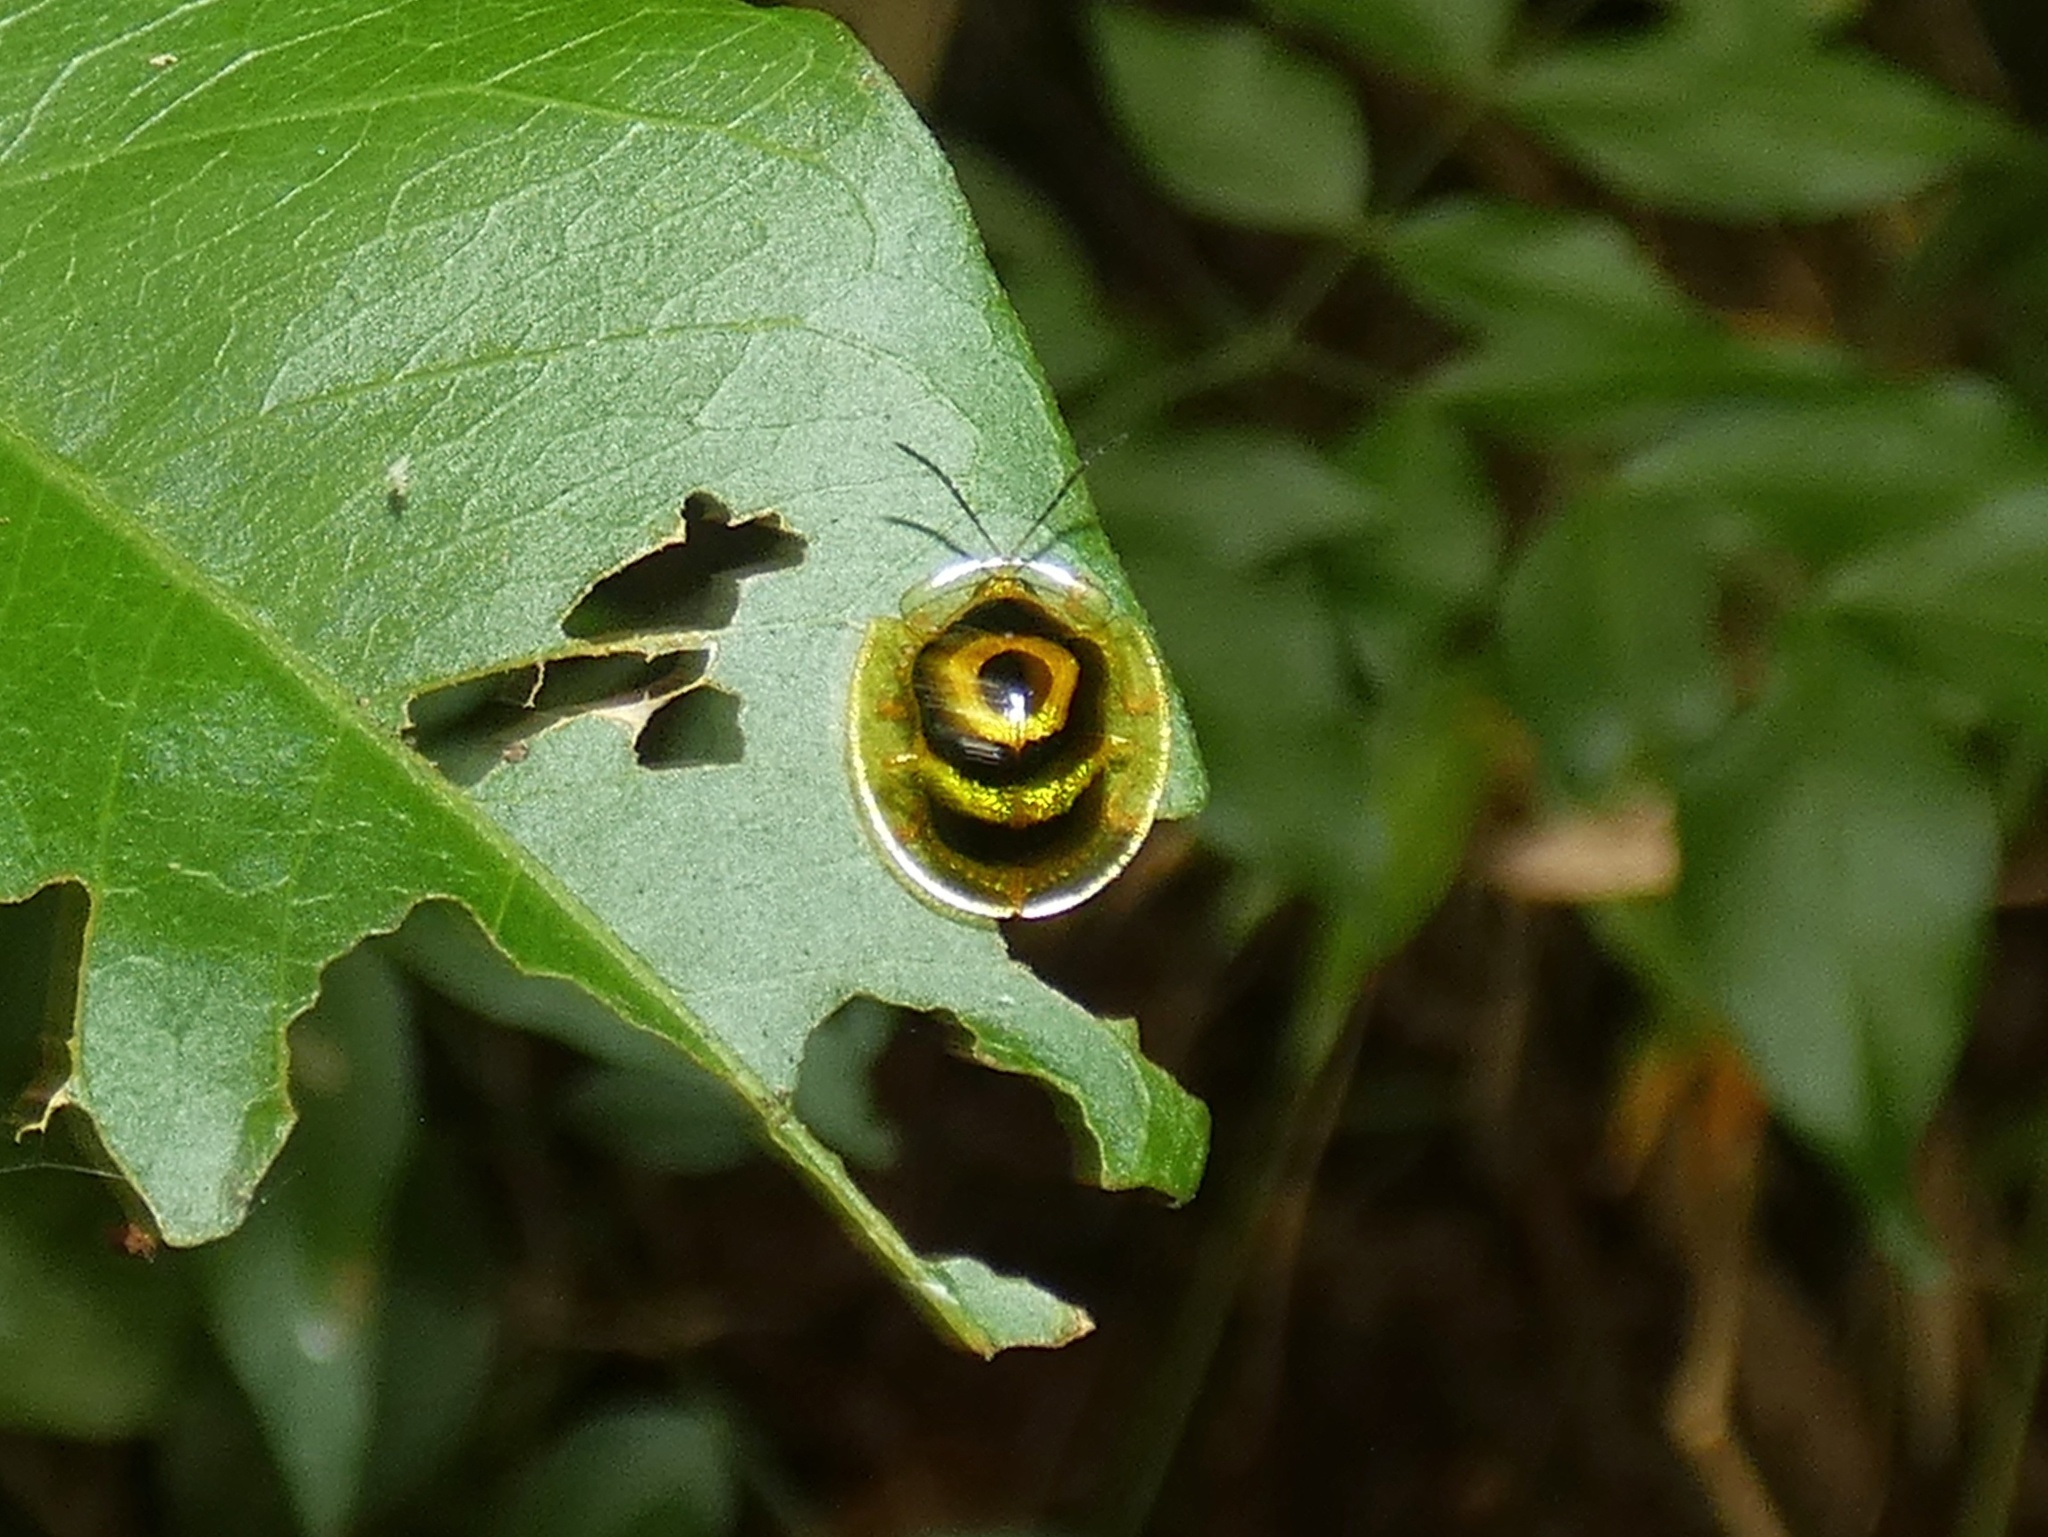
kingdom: Animalia
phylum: Arthropoda
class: Insecta
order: Coleoptera
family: Chrysomelidae
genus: Ischnocodia
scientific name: Ischnocodia annulus
